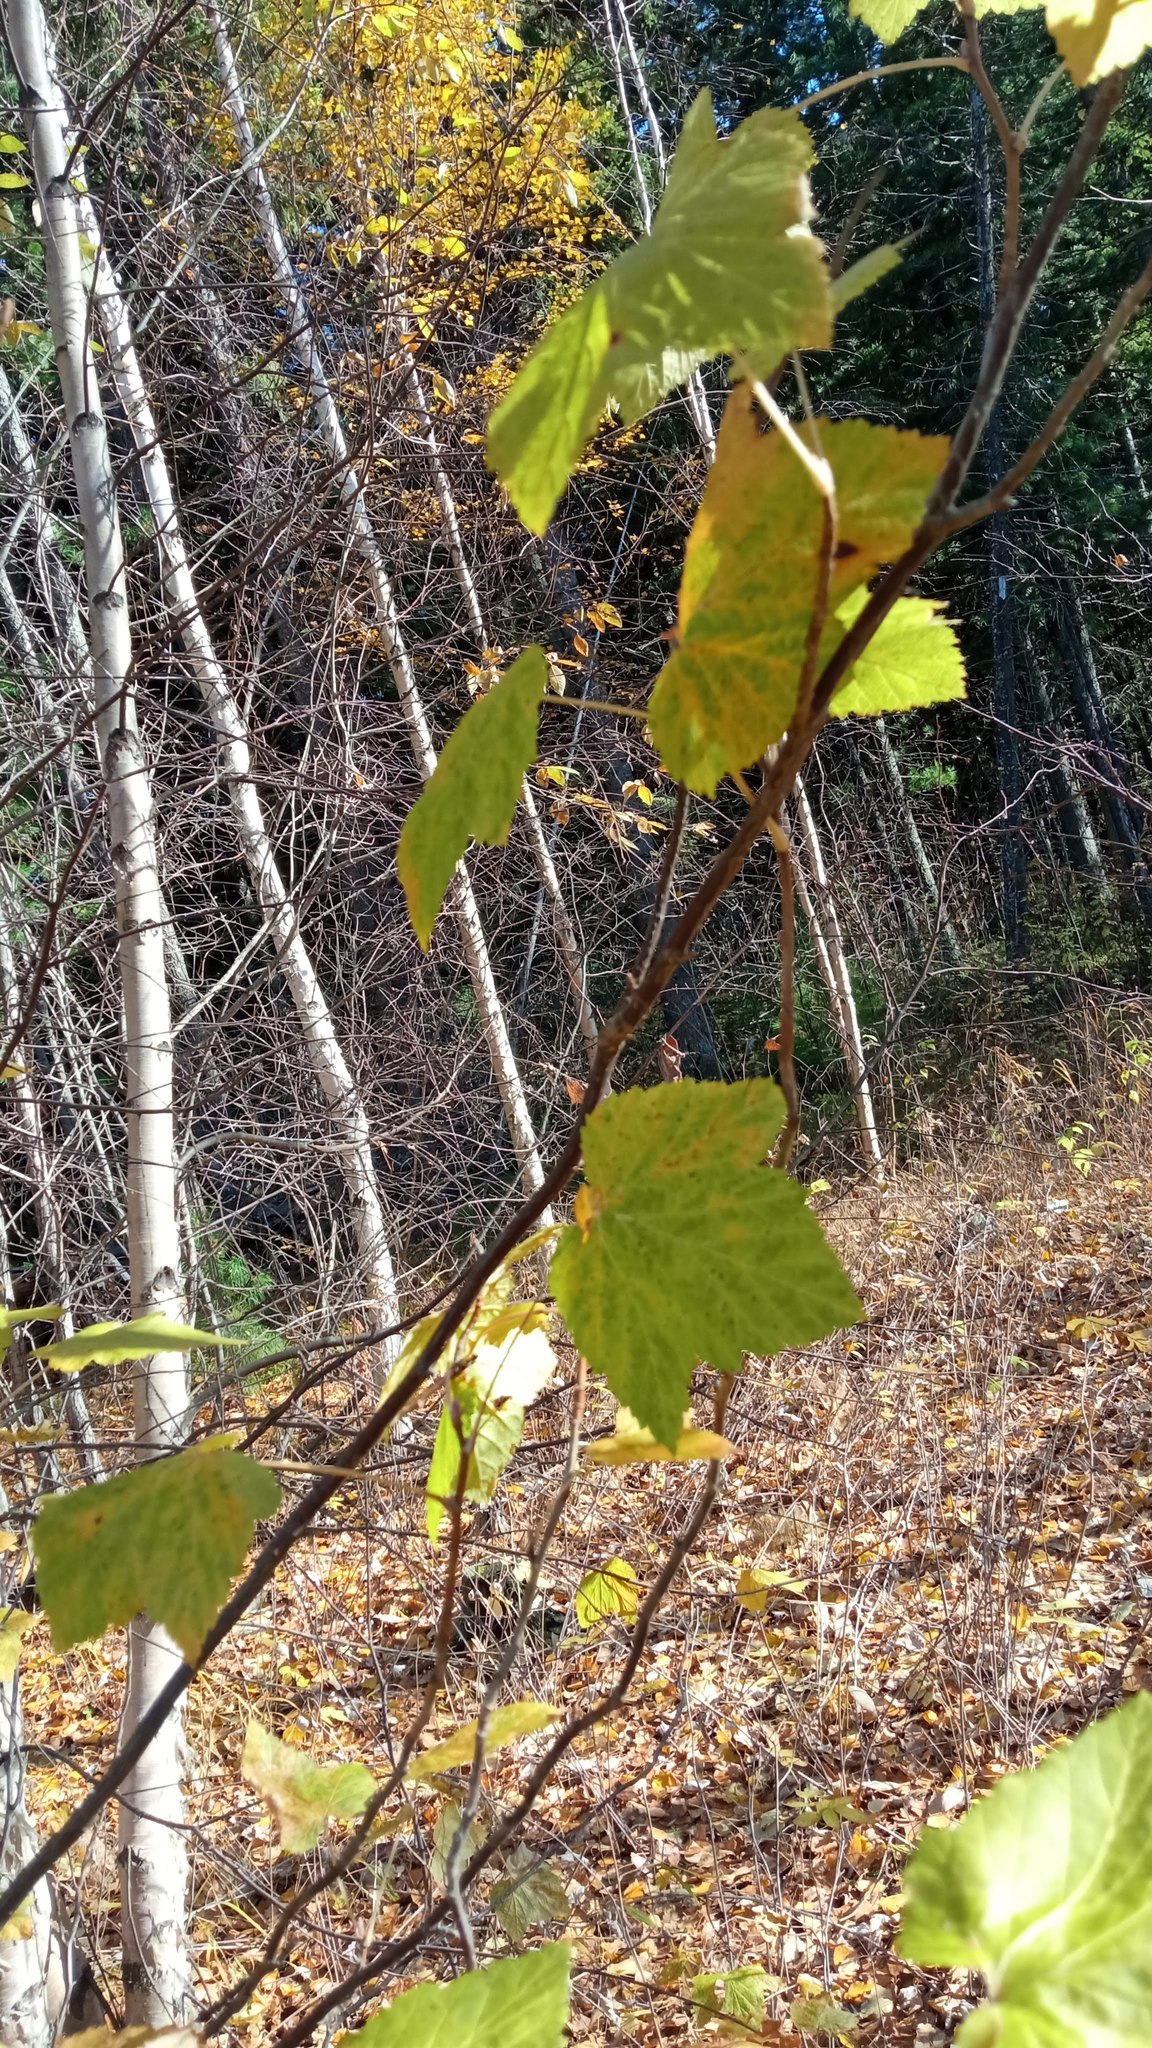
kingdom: Plantae
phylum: Tracheophyta
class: Magnoliopsida
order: Saxifragales
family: Grossulariaceae
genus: Ribes
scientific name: Ribes nigrum
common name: Black currant
